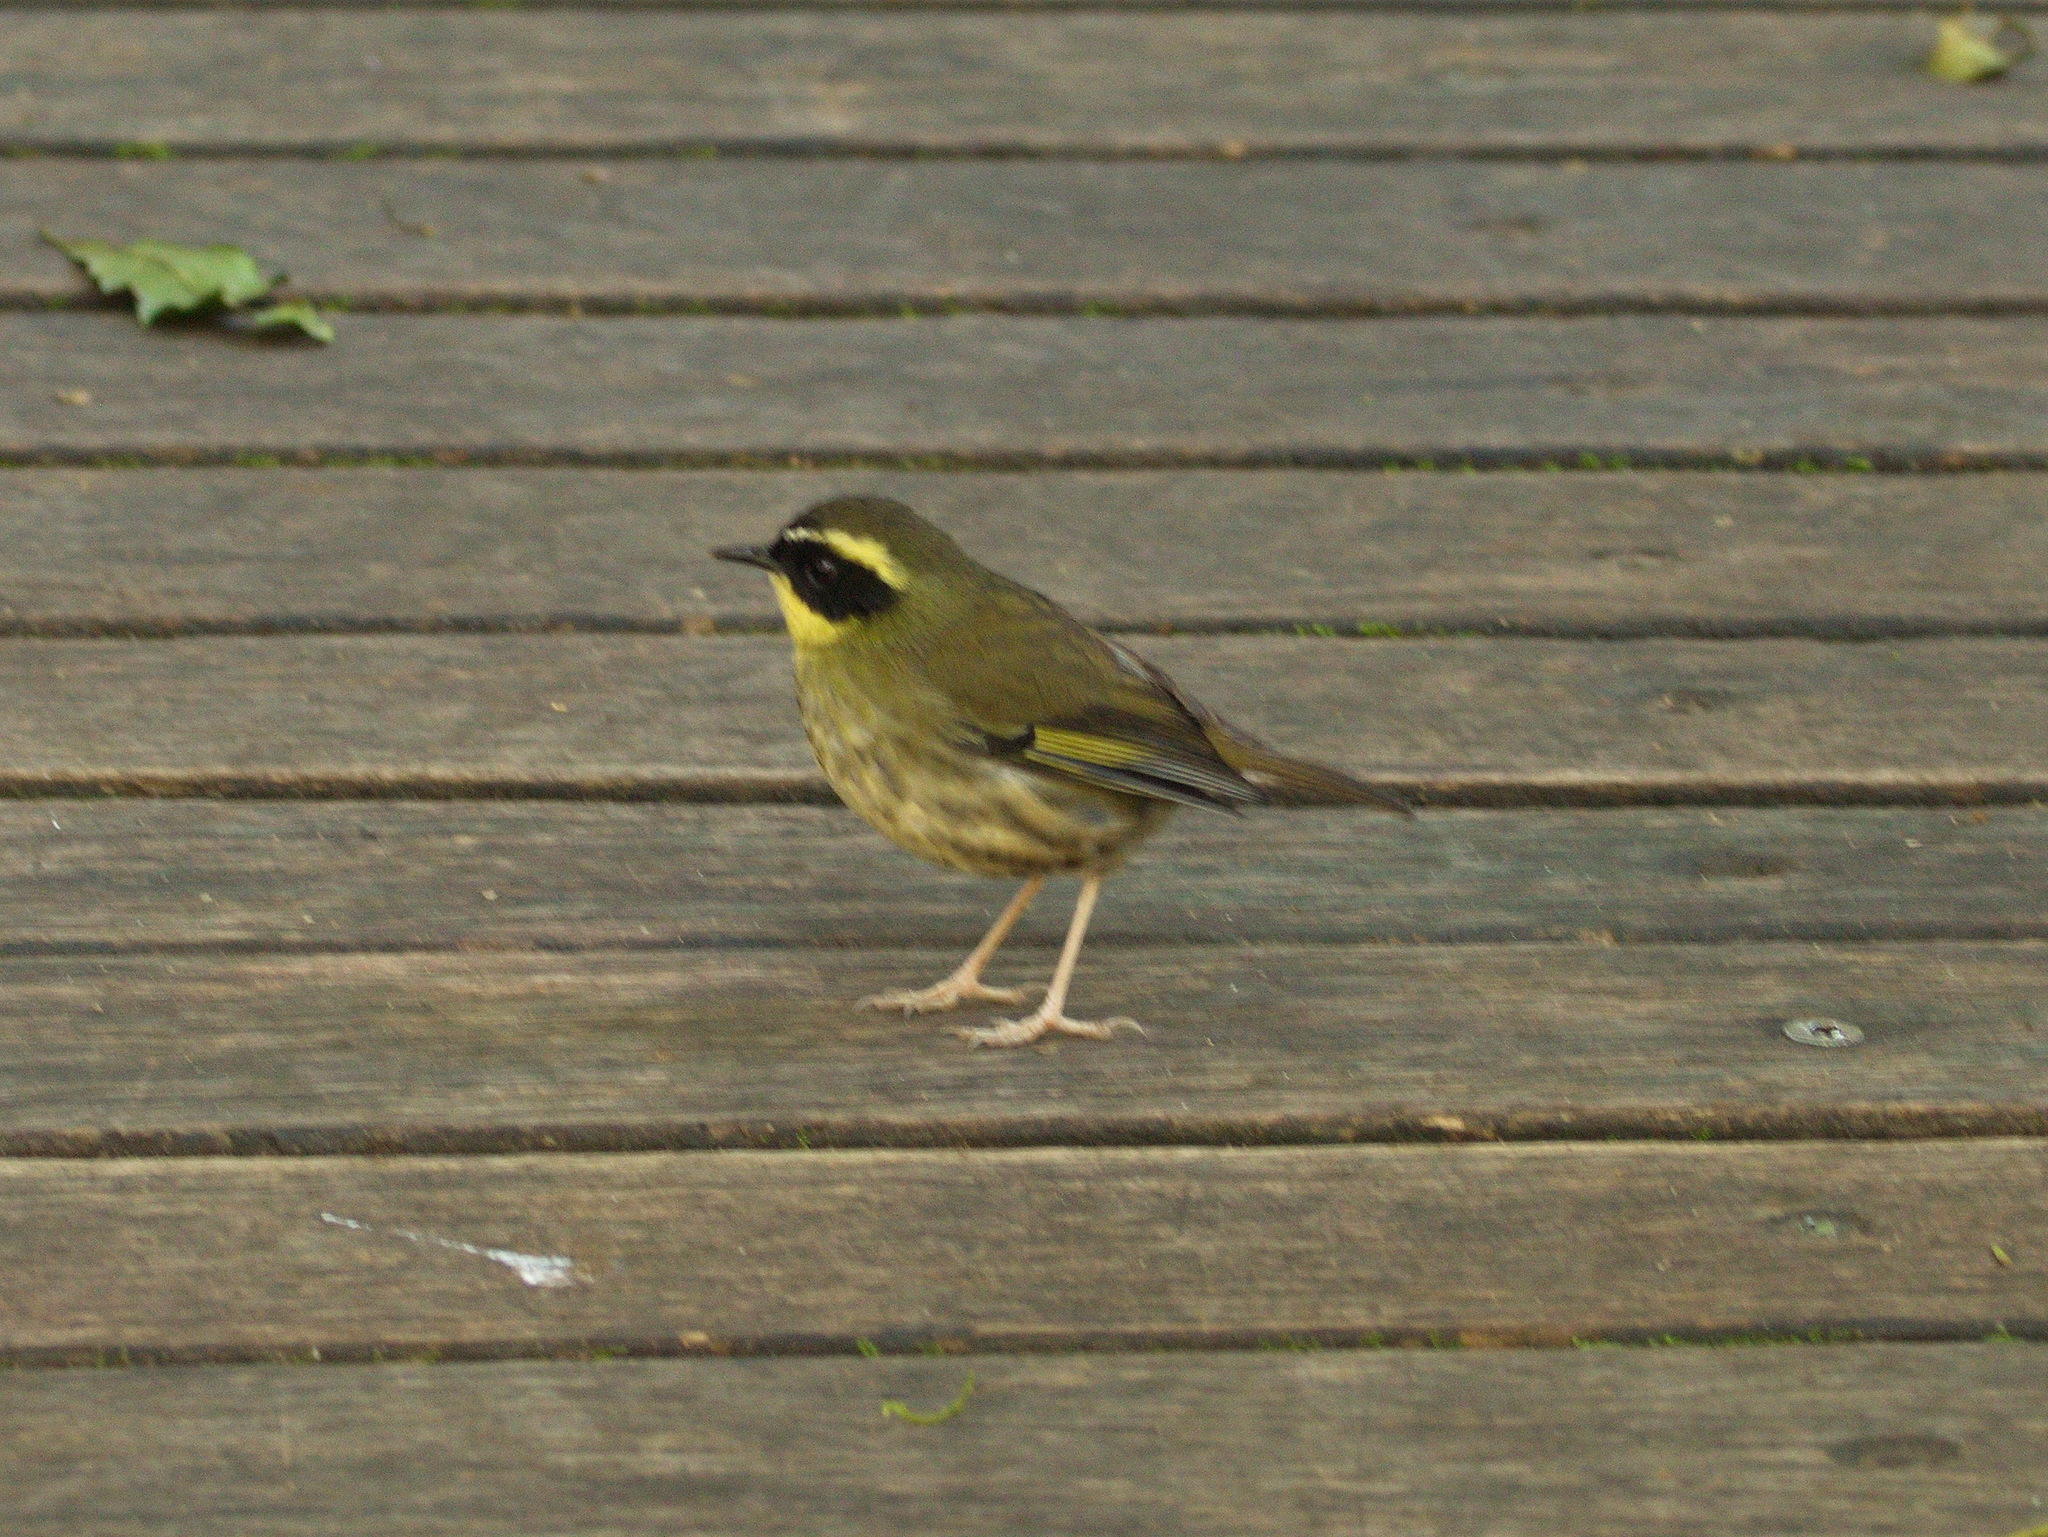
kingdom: Animalia
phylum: Chordata
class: Aves
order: Passeriformes
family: Acanthizidae
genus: Sericornis
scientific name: Sericornis citreogularis
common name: Yellow-throated scrubwren
